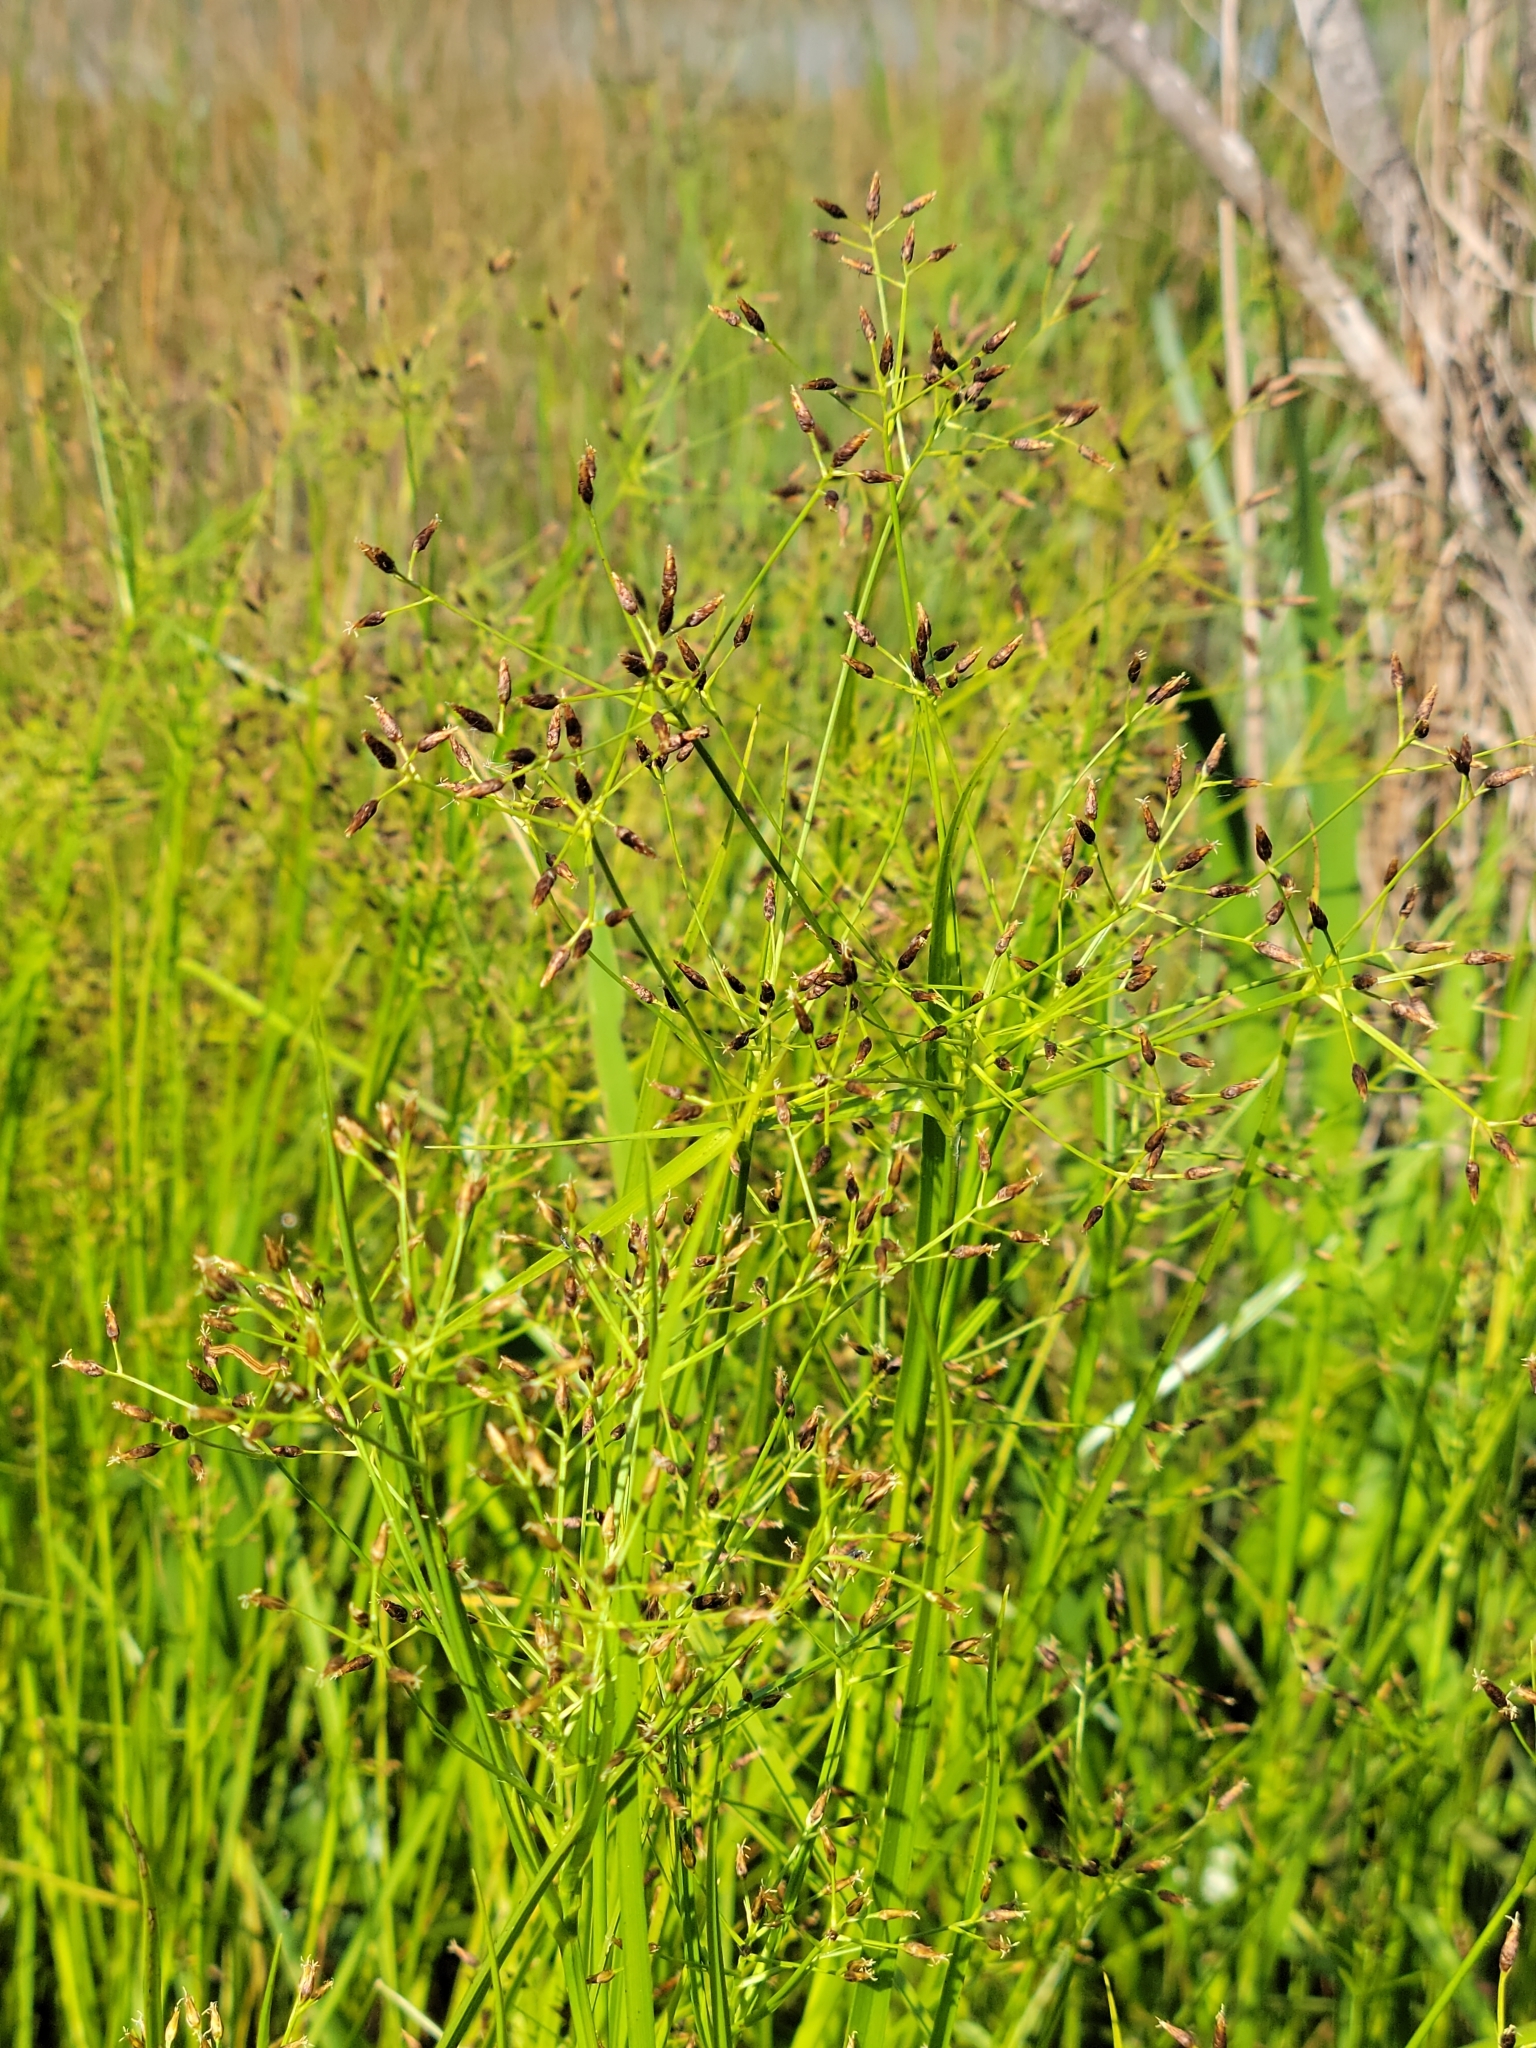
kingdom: Plantae
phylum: Tracheophyta
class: Liliopsida
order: Poales
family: Cyperaceae
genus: Rhynchospora
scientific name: Rhynchospora nitens
